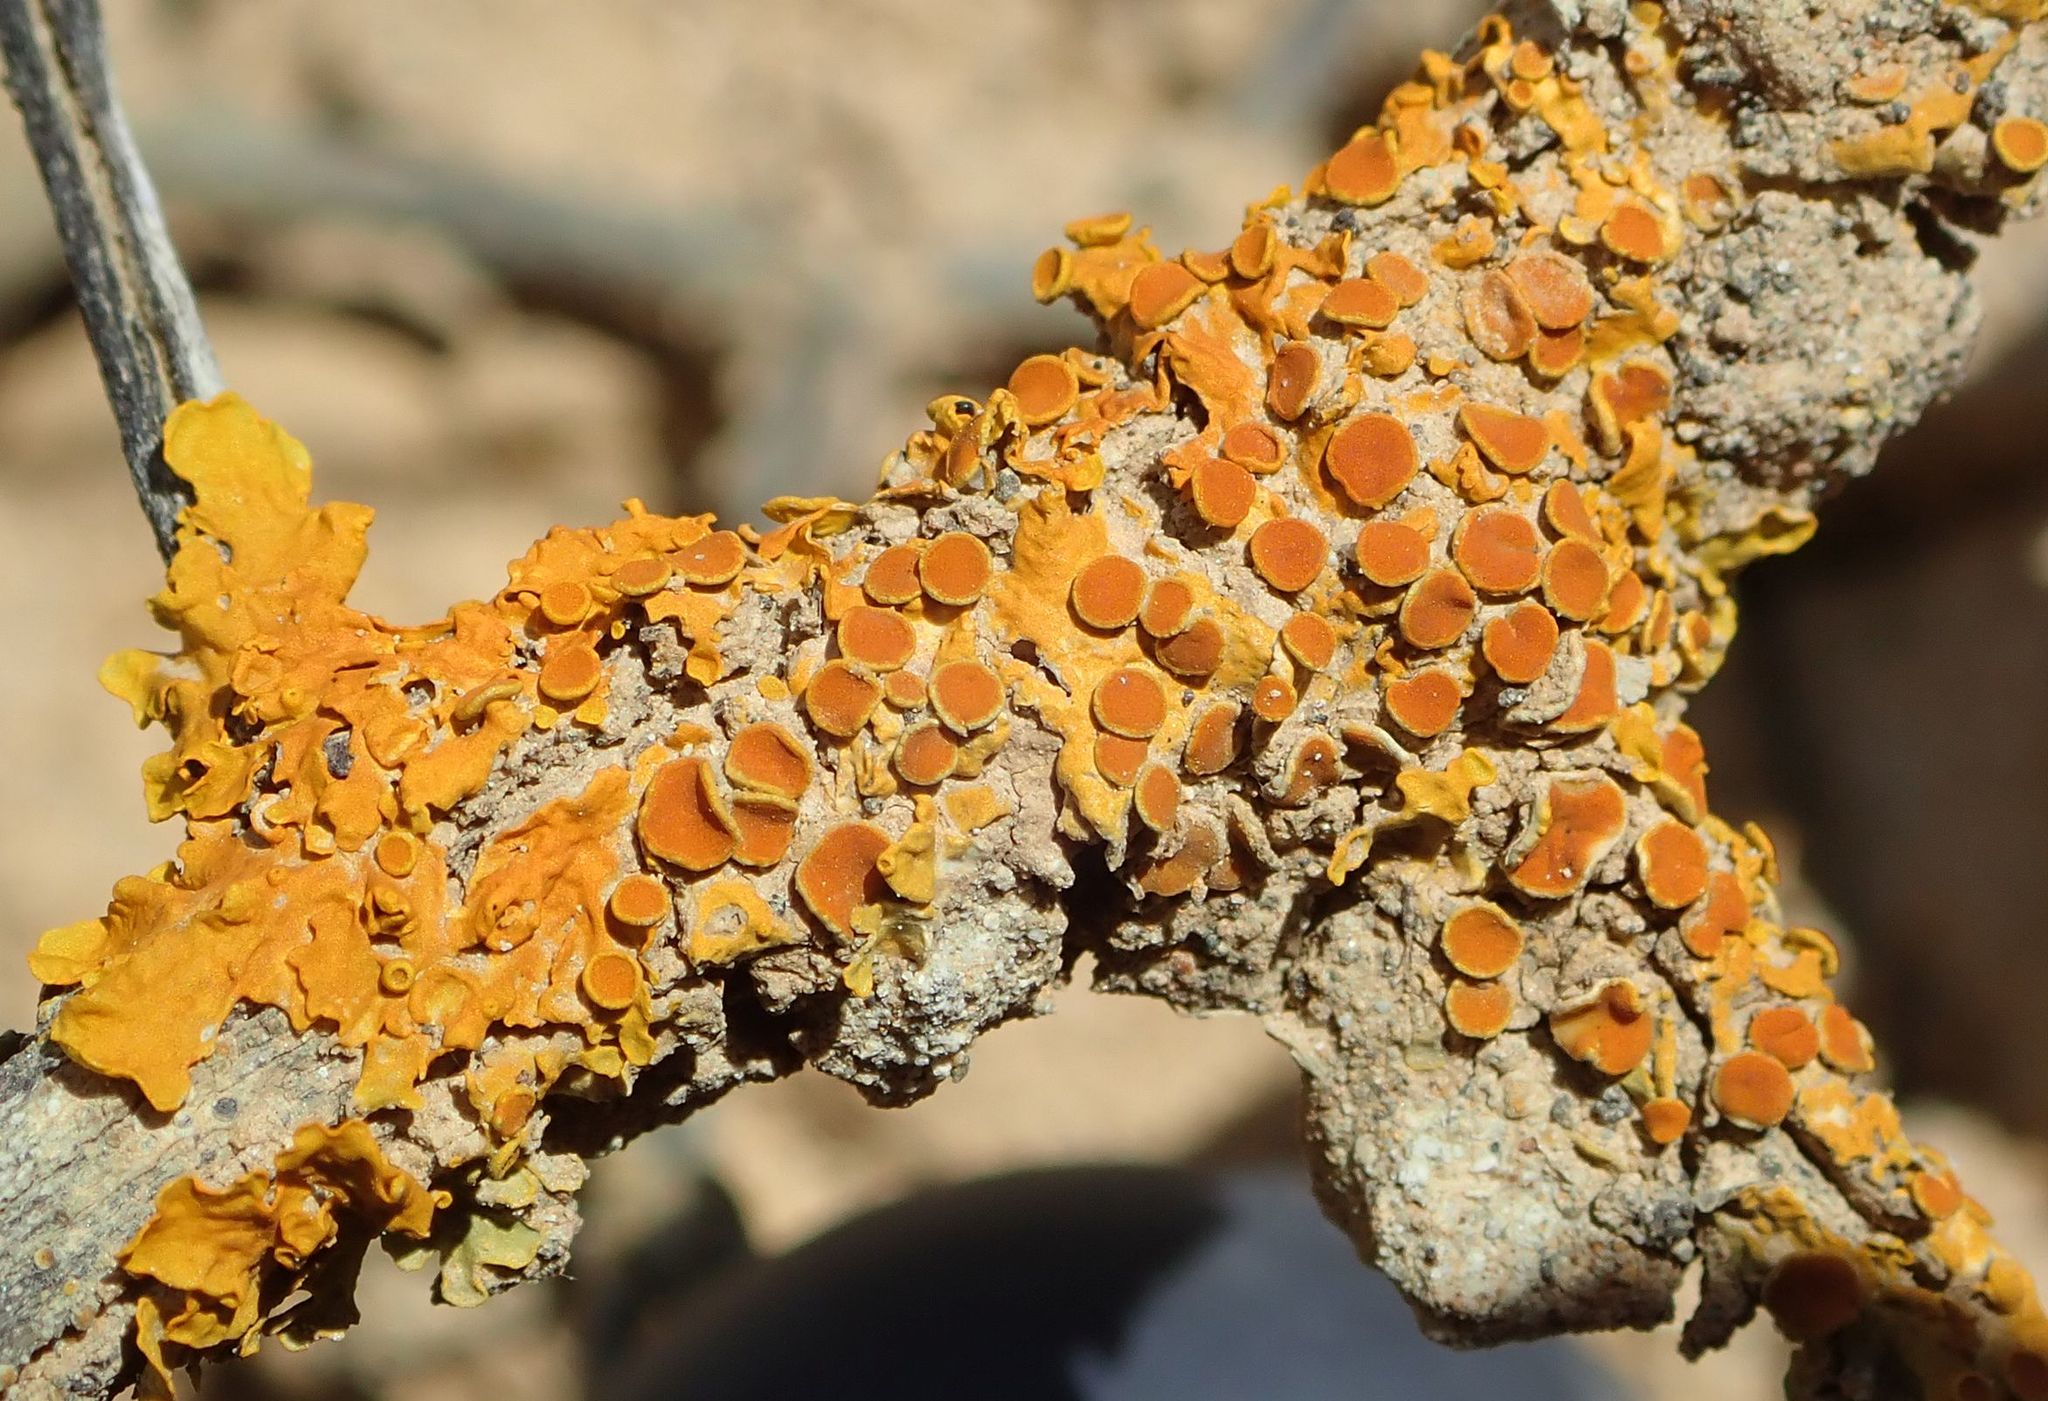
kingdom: Fungi
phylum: Ascomycota
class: Lecanoromycetes
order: Teloschistales
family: Teloschistaceae
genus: Xanthoria
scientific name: Xanthoria parietina
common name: Common orange lichen
